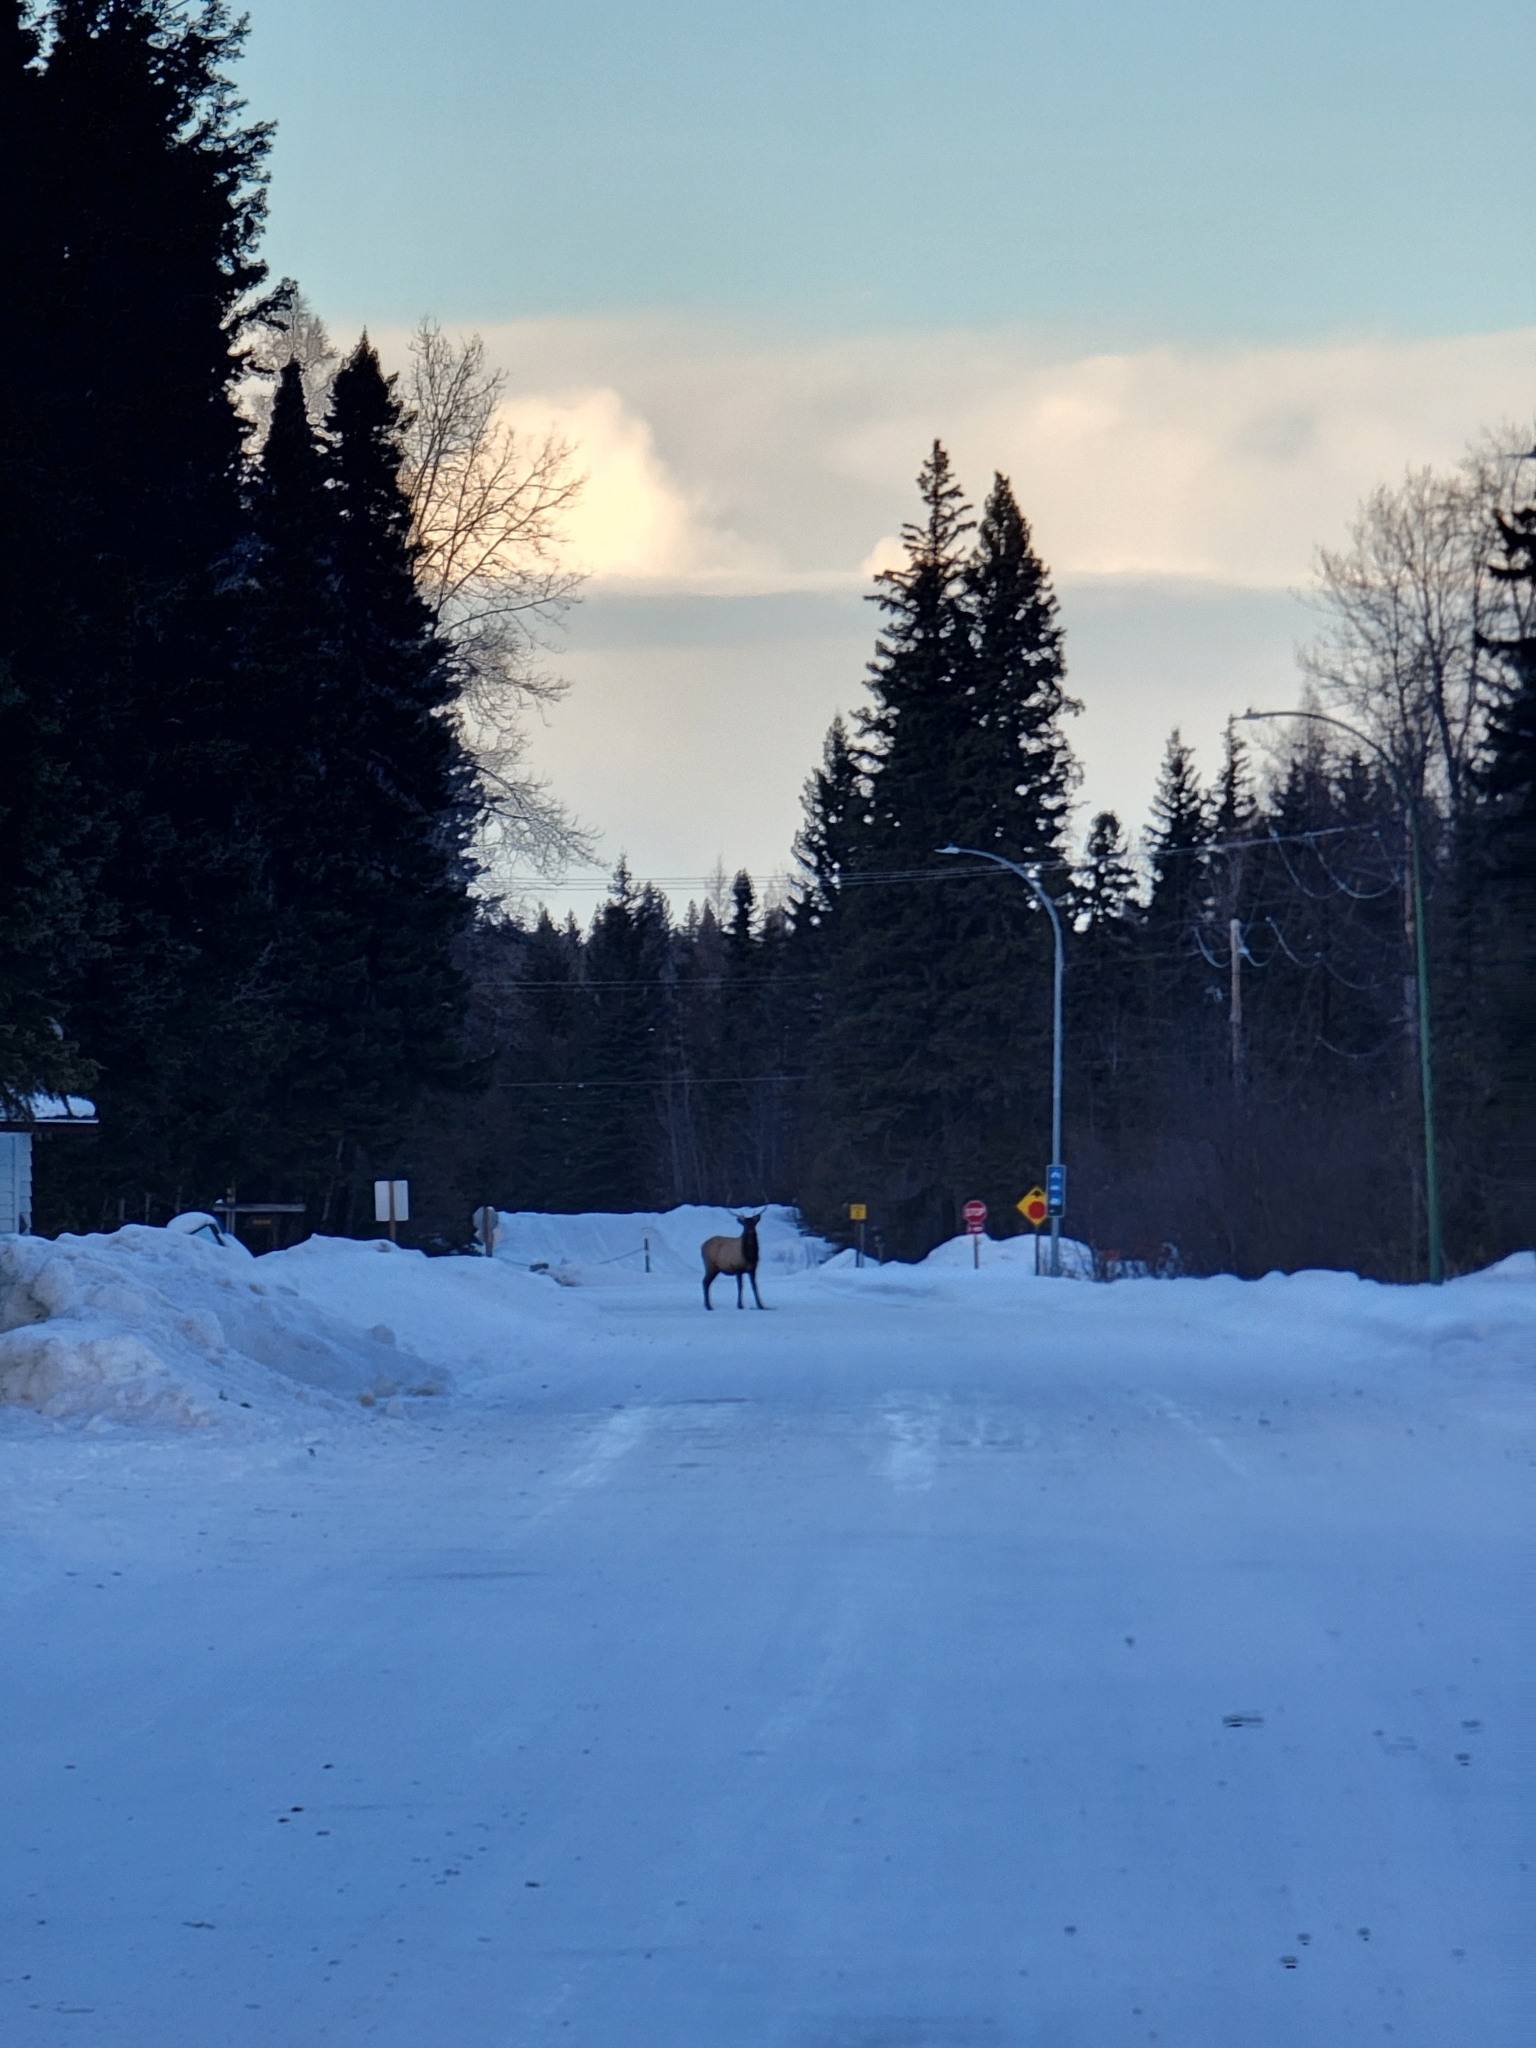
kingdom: Animalia
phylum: Chordata
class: Mammalia
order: Artiodactyla
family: Cervidae
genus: Cervus
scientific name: Cervus elaphus
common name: Red deer
